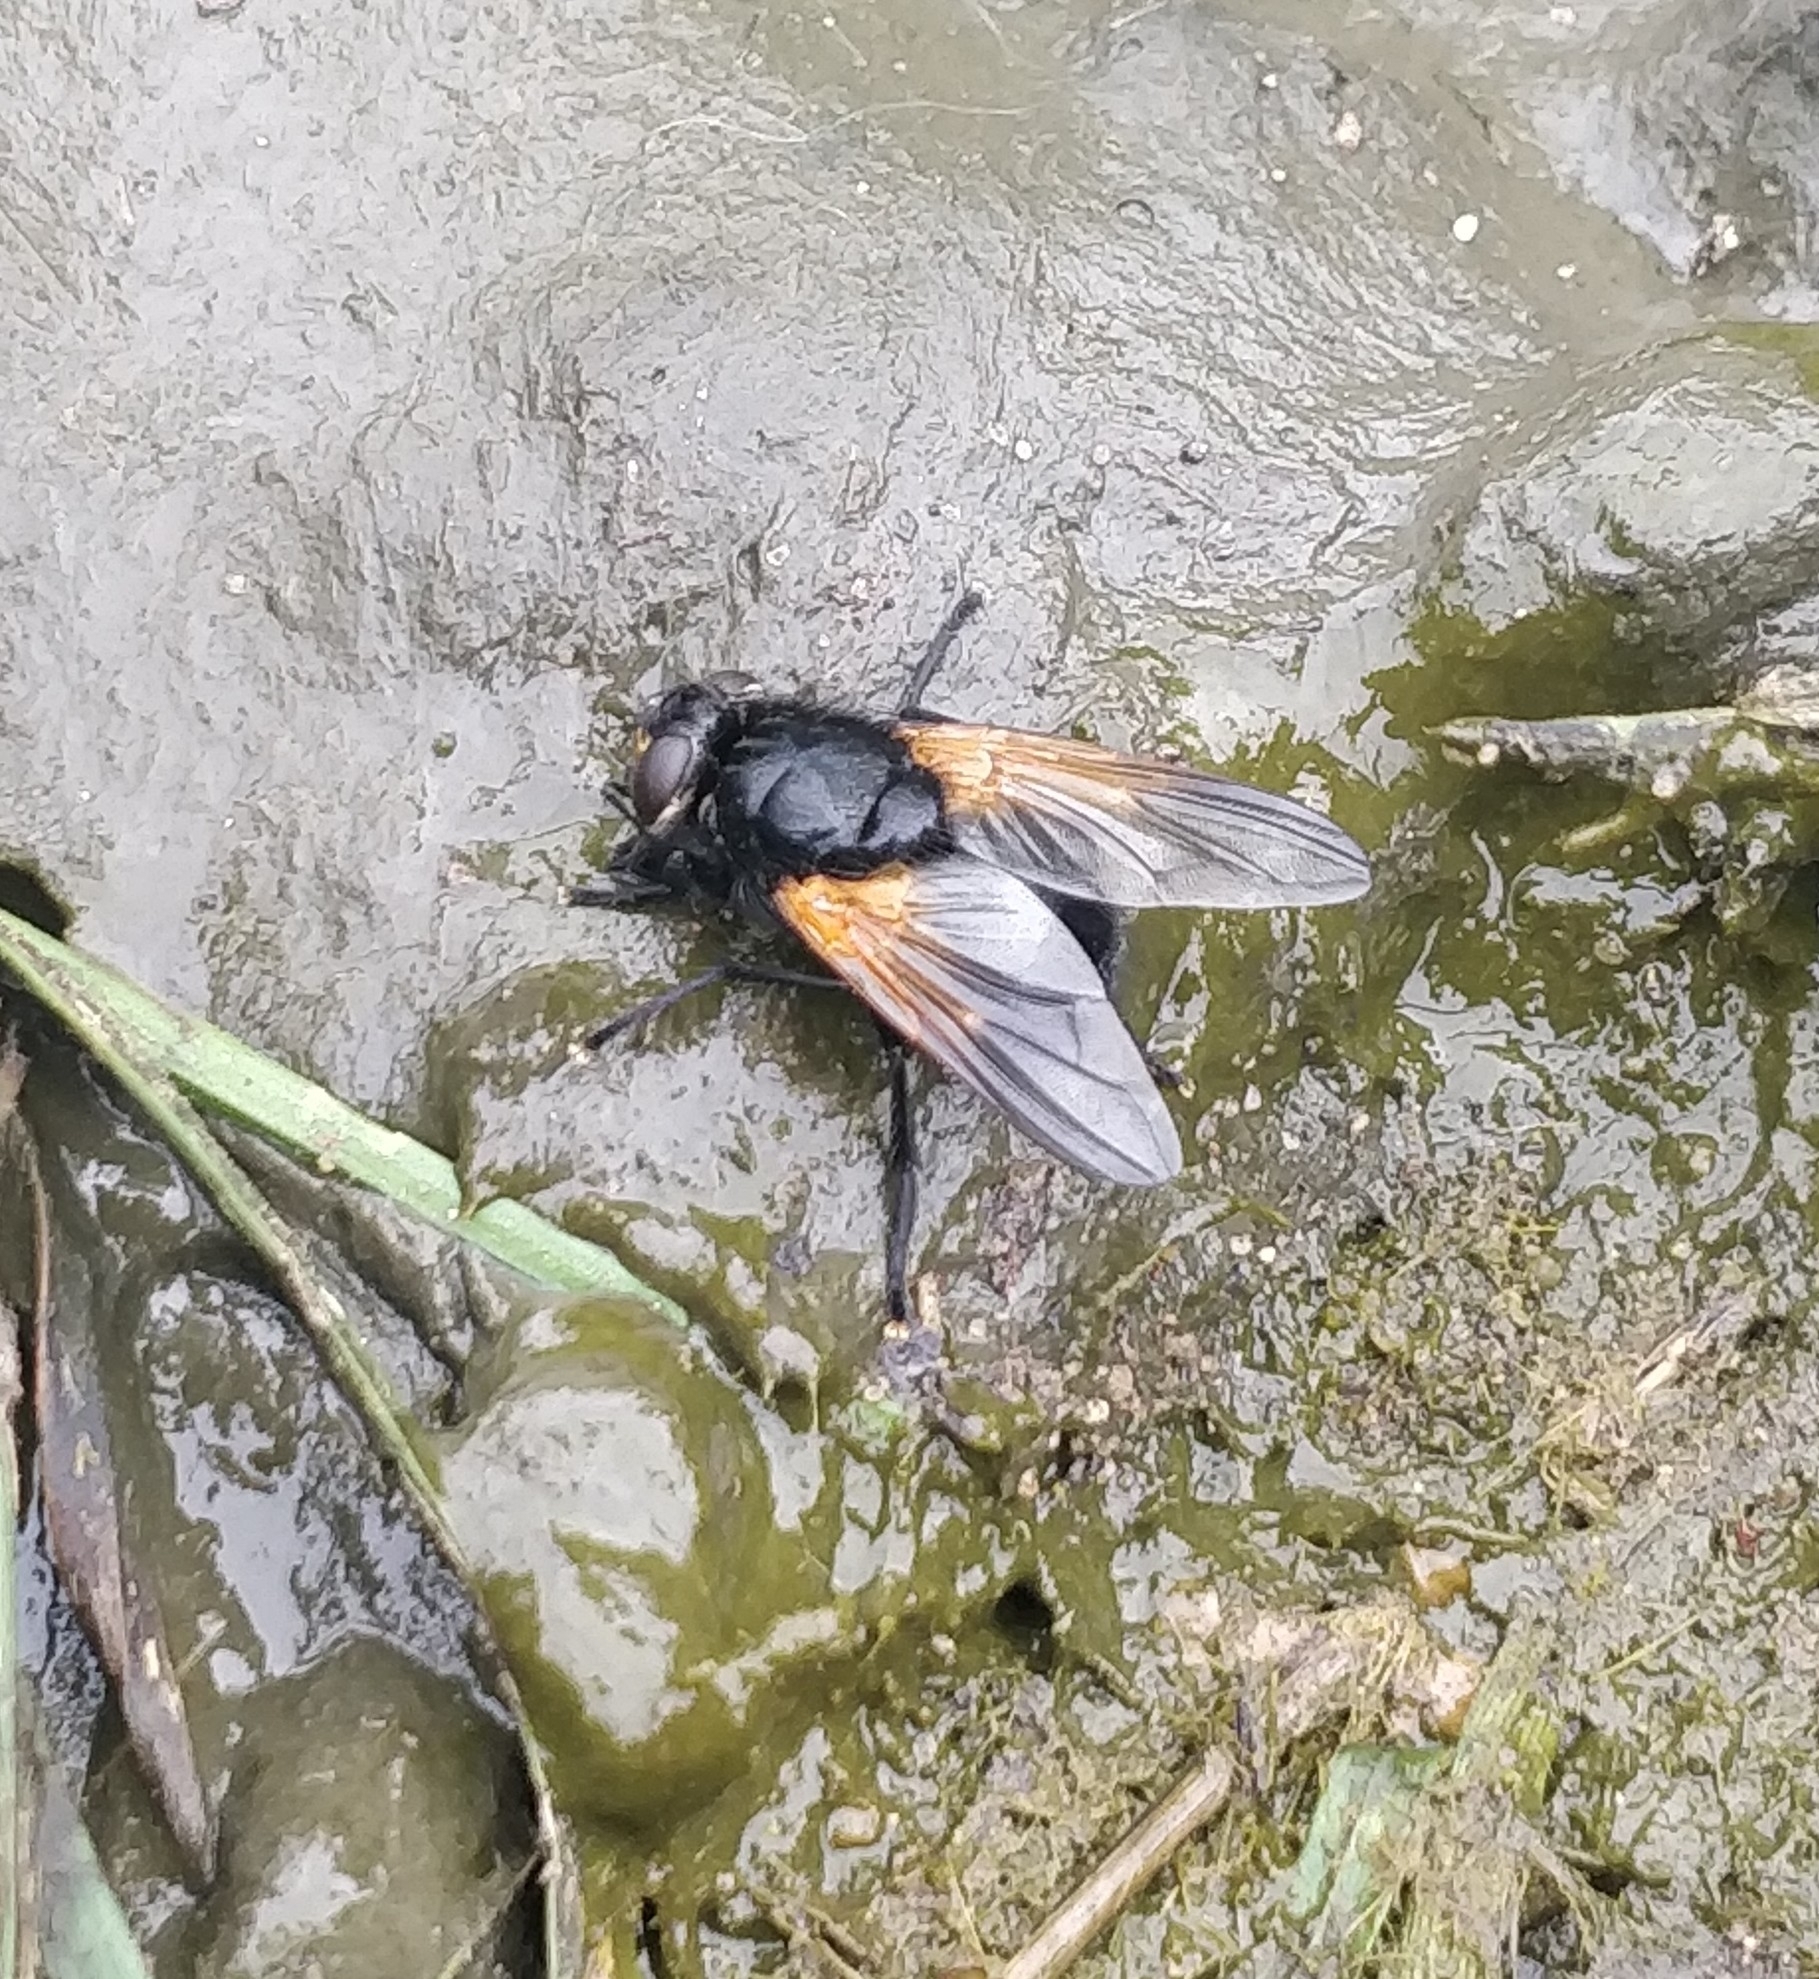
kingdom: Animalia
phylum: Arthropoda
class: Insecta
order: Diptera
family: Muscidae
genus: Mesembrina
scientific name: Mesembrina meridiana
